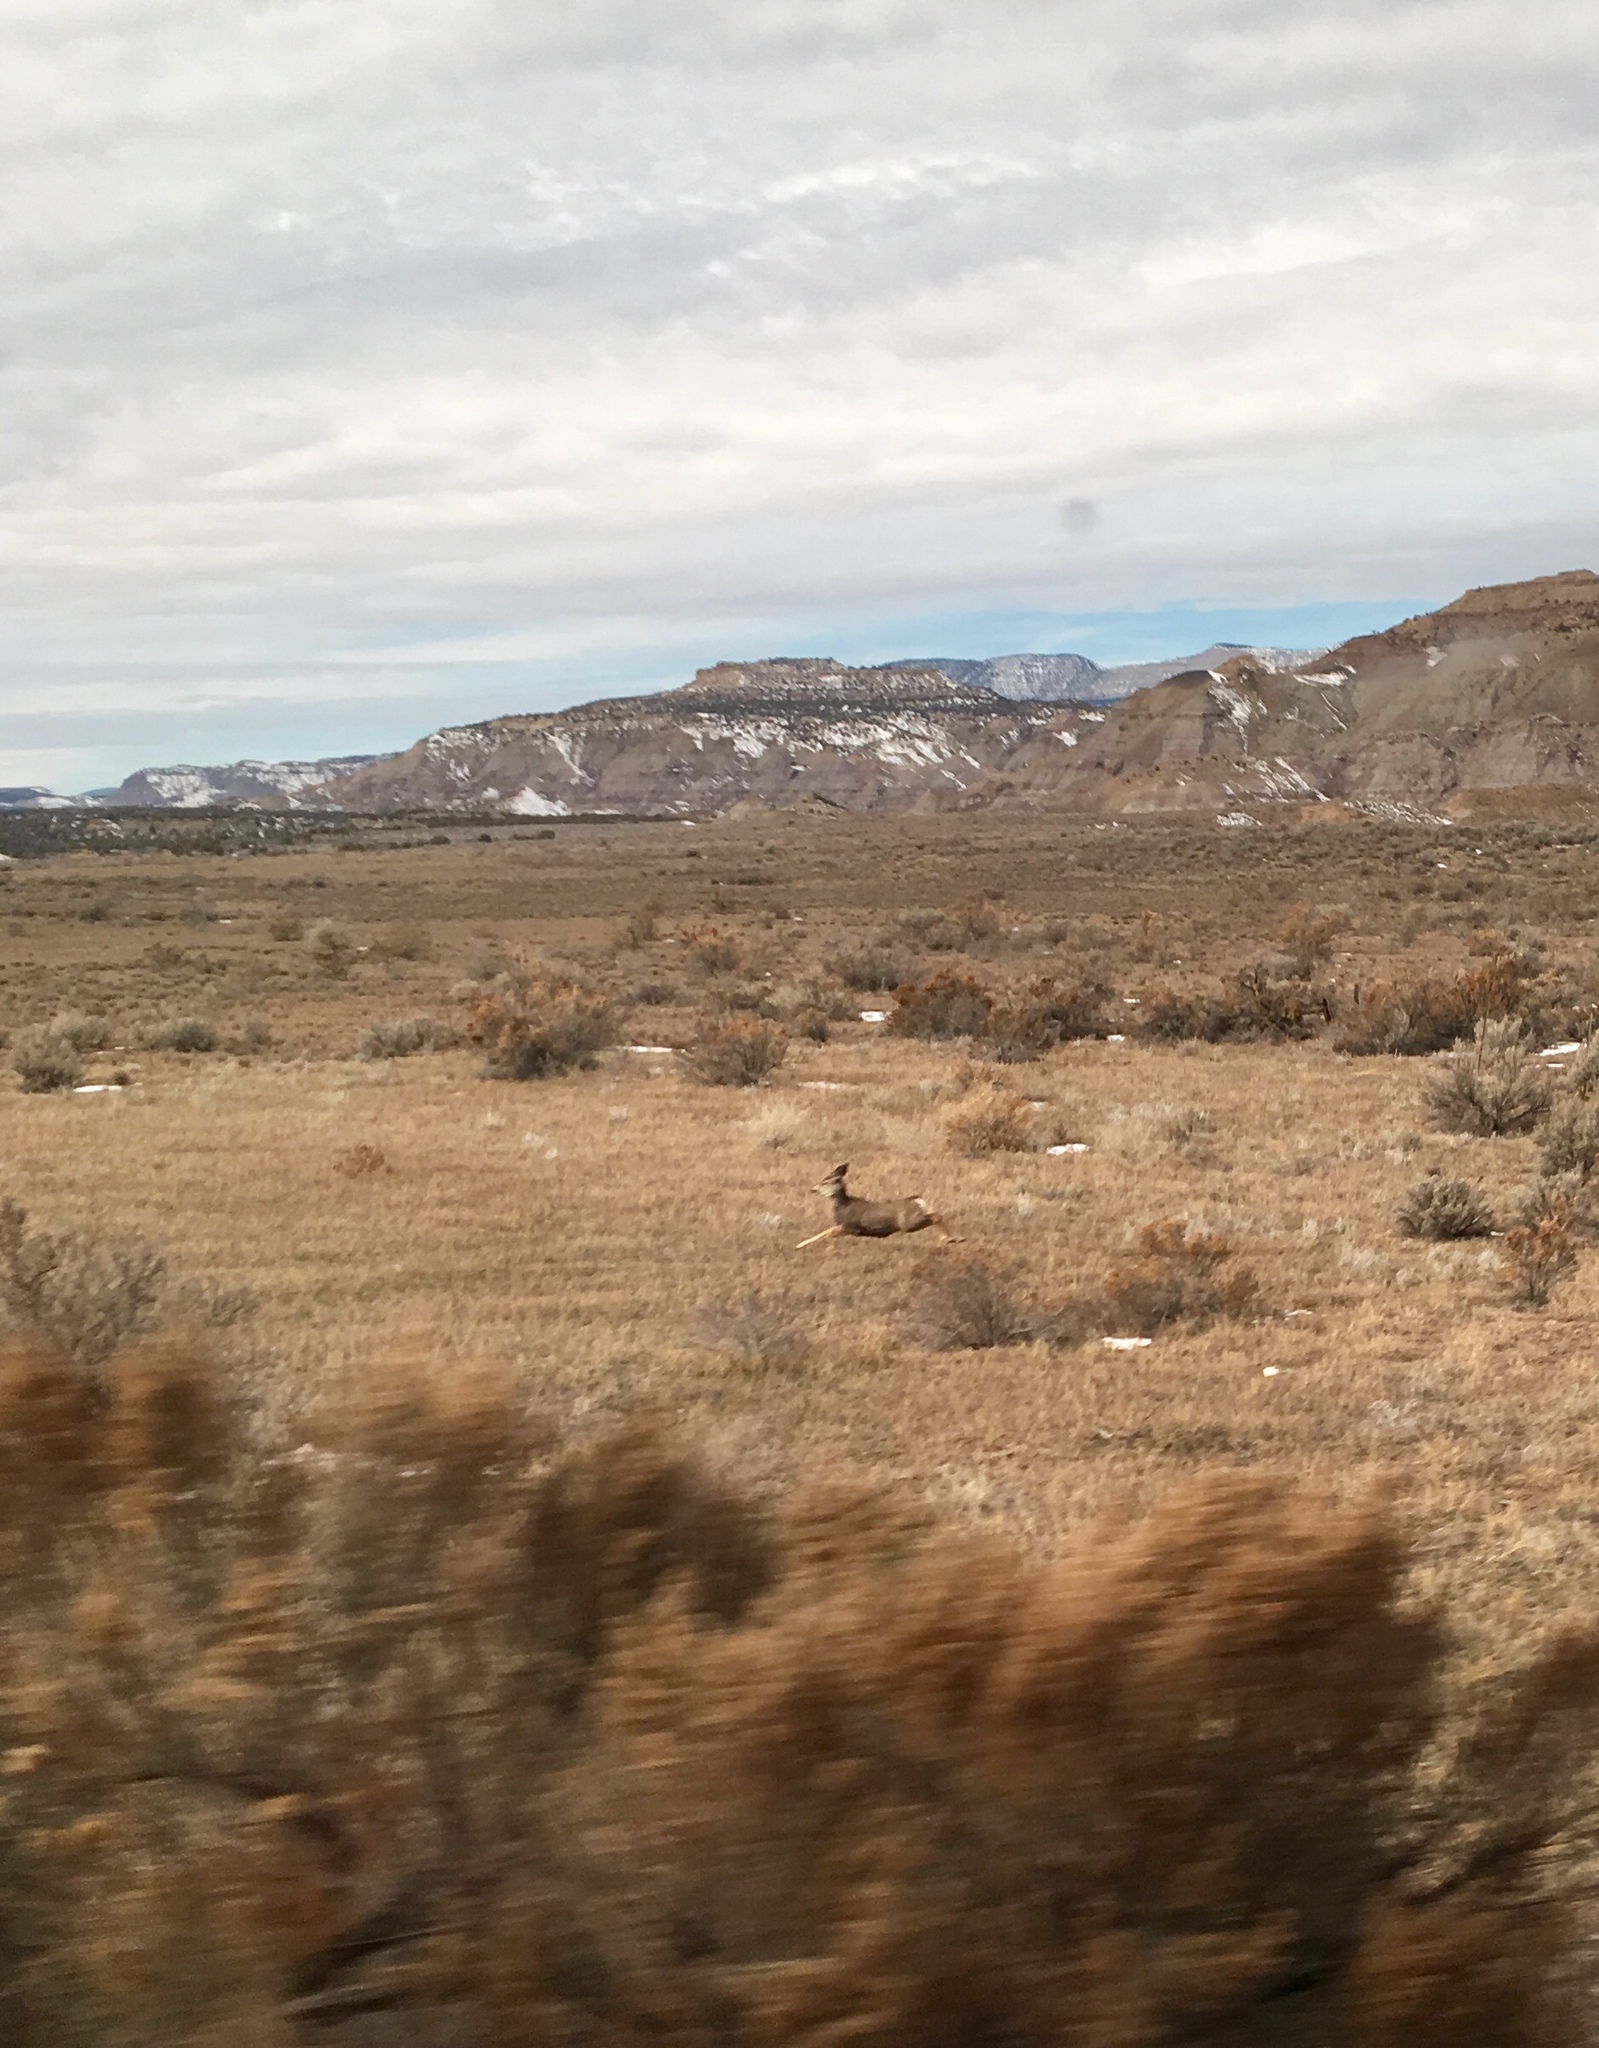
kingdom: Animalia
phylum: Chordata
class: Mammalia
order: Artiodactyla
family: Cervidae
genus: Odocoileus
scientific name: Odocoileus hemionus
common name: Mule deer
